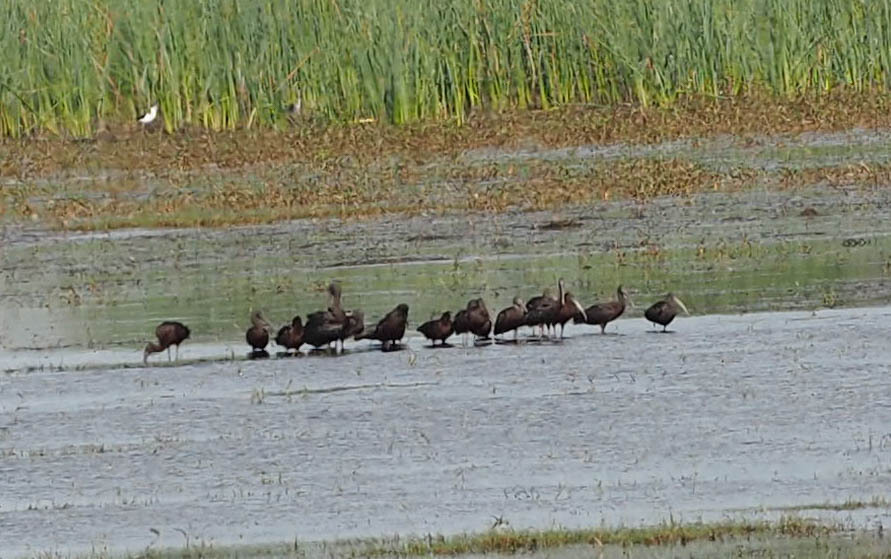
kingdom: Animalia
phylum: Chordata
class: Aves
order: Pelecaniformes
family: Threskiornithidae
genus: Plegadis
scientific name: Plegadis falcinellus
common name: Glossy ibis
